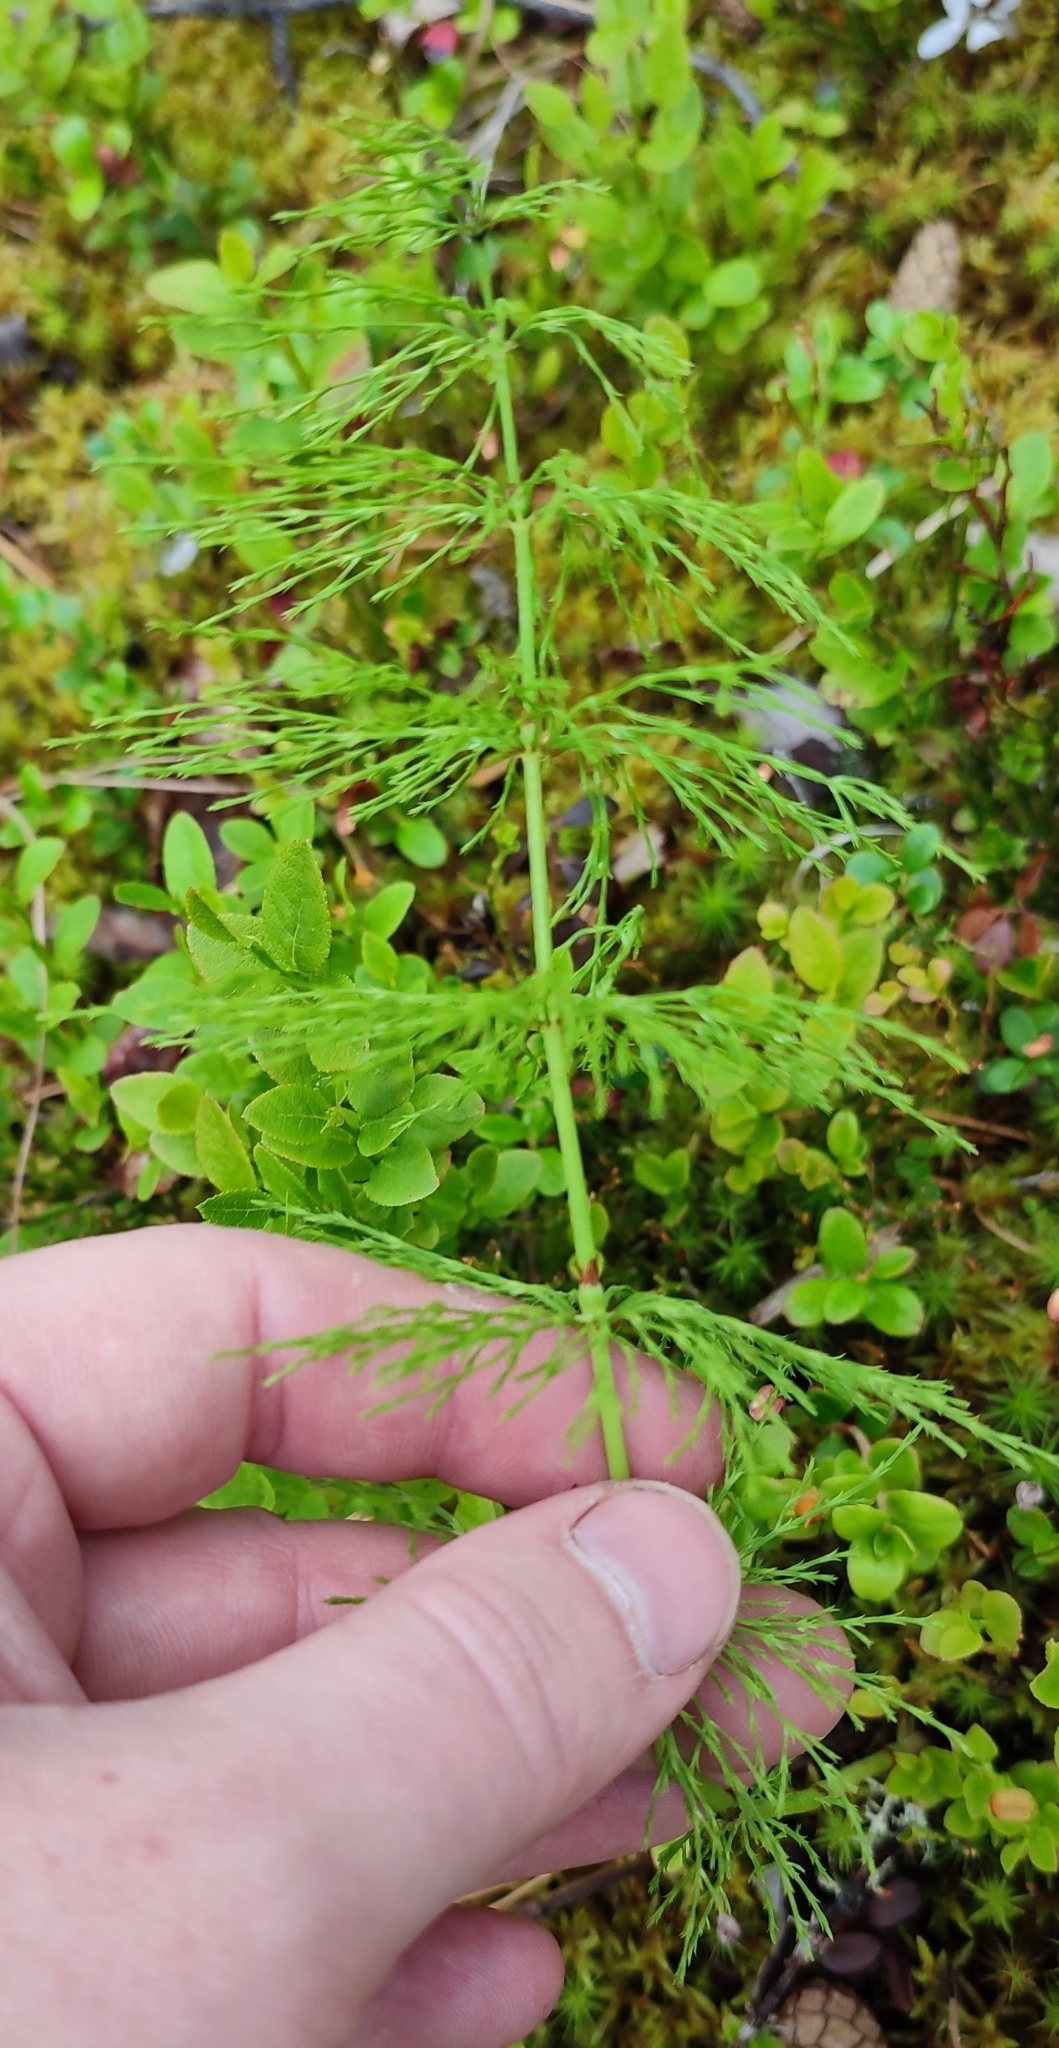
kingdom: Plantae
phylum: Tracheophyta
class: Polypodiopsida
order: Equisetales
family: Equisetaceae
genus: Equisetum
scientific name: Equisetum sylvaticum
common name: Wood horsetail
